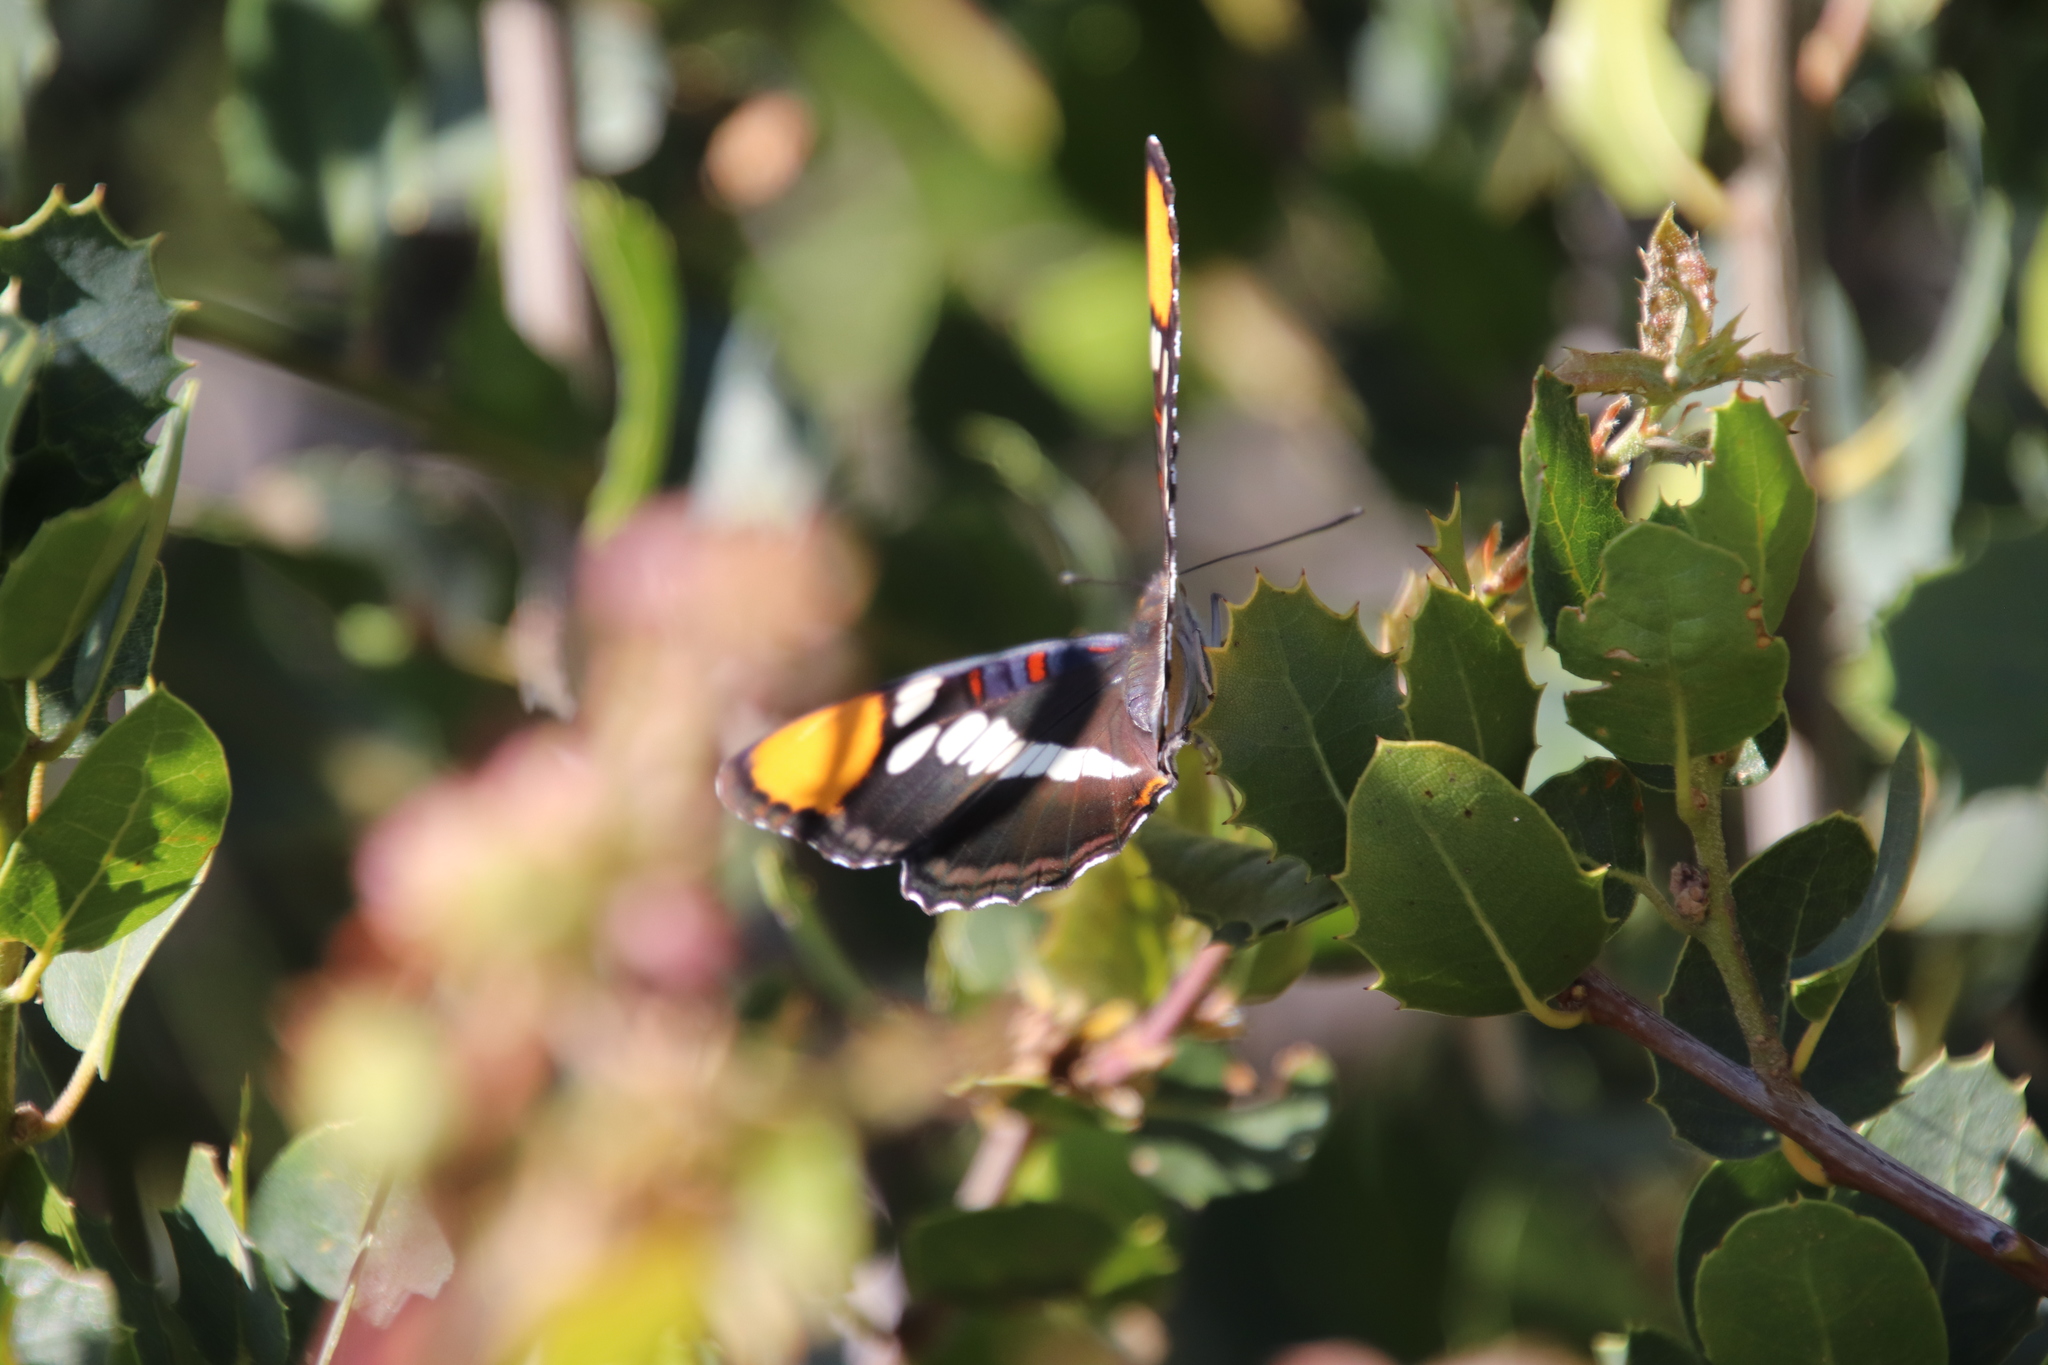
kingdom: Animalia
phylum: Arthropoda
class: Insecta
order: Lepidoptera
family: Nymphalidae
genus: Limenitis
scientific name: Limenitis bredowii
